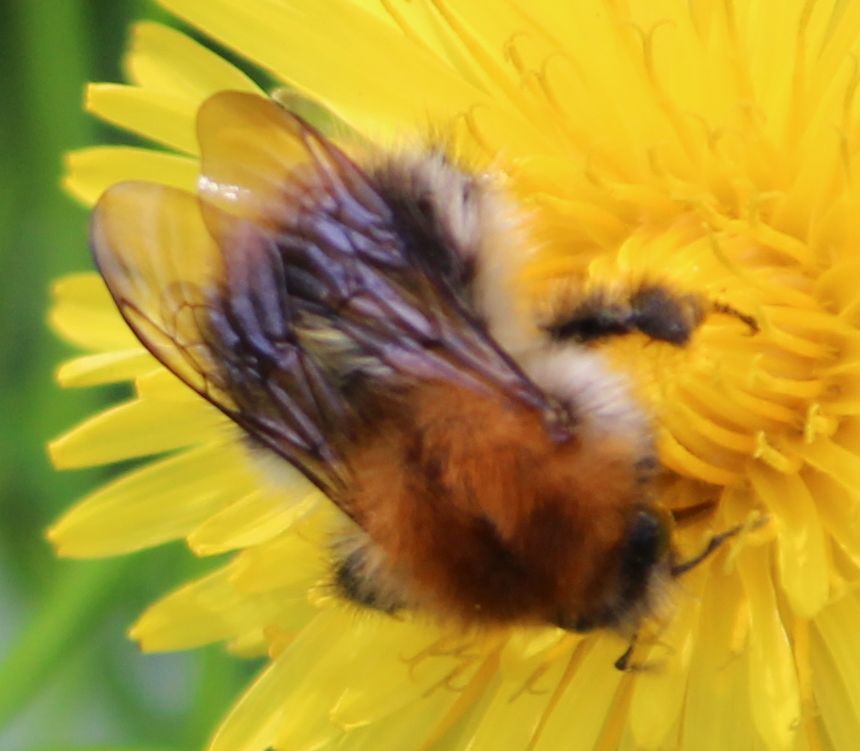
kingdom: Animalia
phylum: Arthropoda
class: Insecta
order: Hymenoptera
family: Apidae
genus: Bombus
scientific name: Bombus pascuorum
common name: Common carder bee
